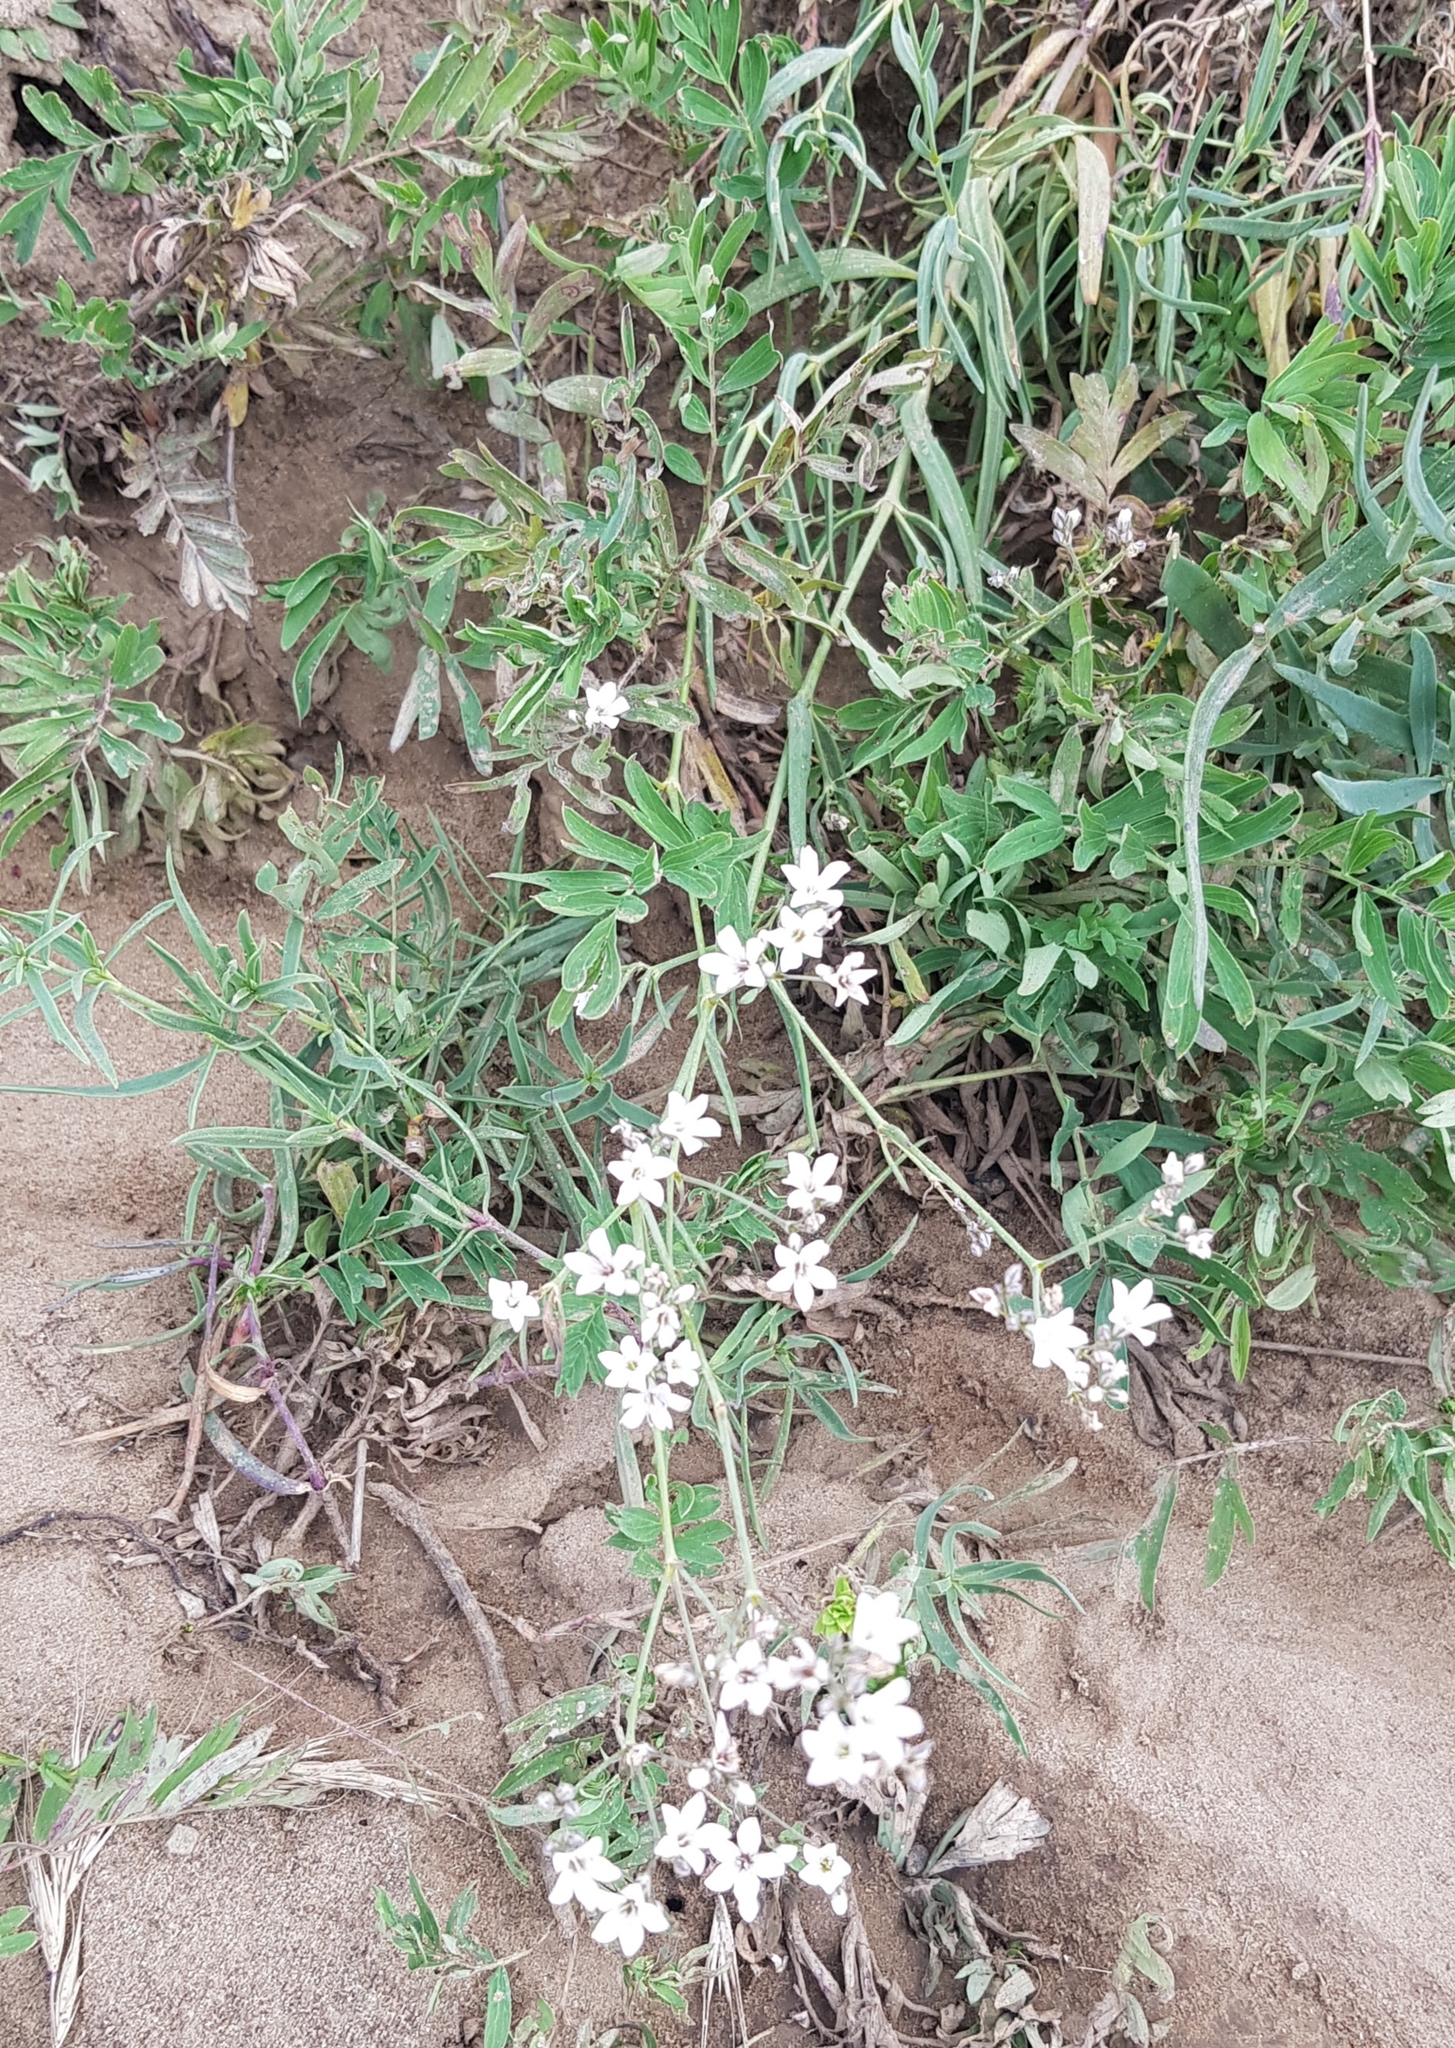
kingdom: Plantae
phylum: Tracheophyta
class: Magnoliopsida
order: Caryophyllales
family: Caryophyllaceae
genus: Gypsophila
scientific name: Gypsophila paniculata
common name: Baby's-breath
